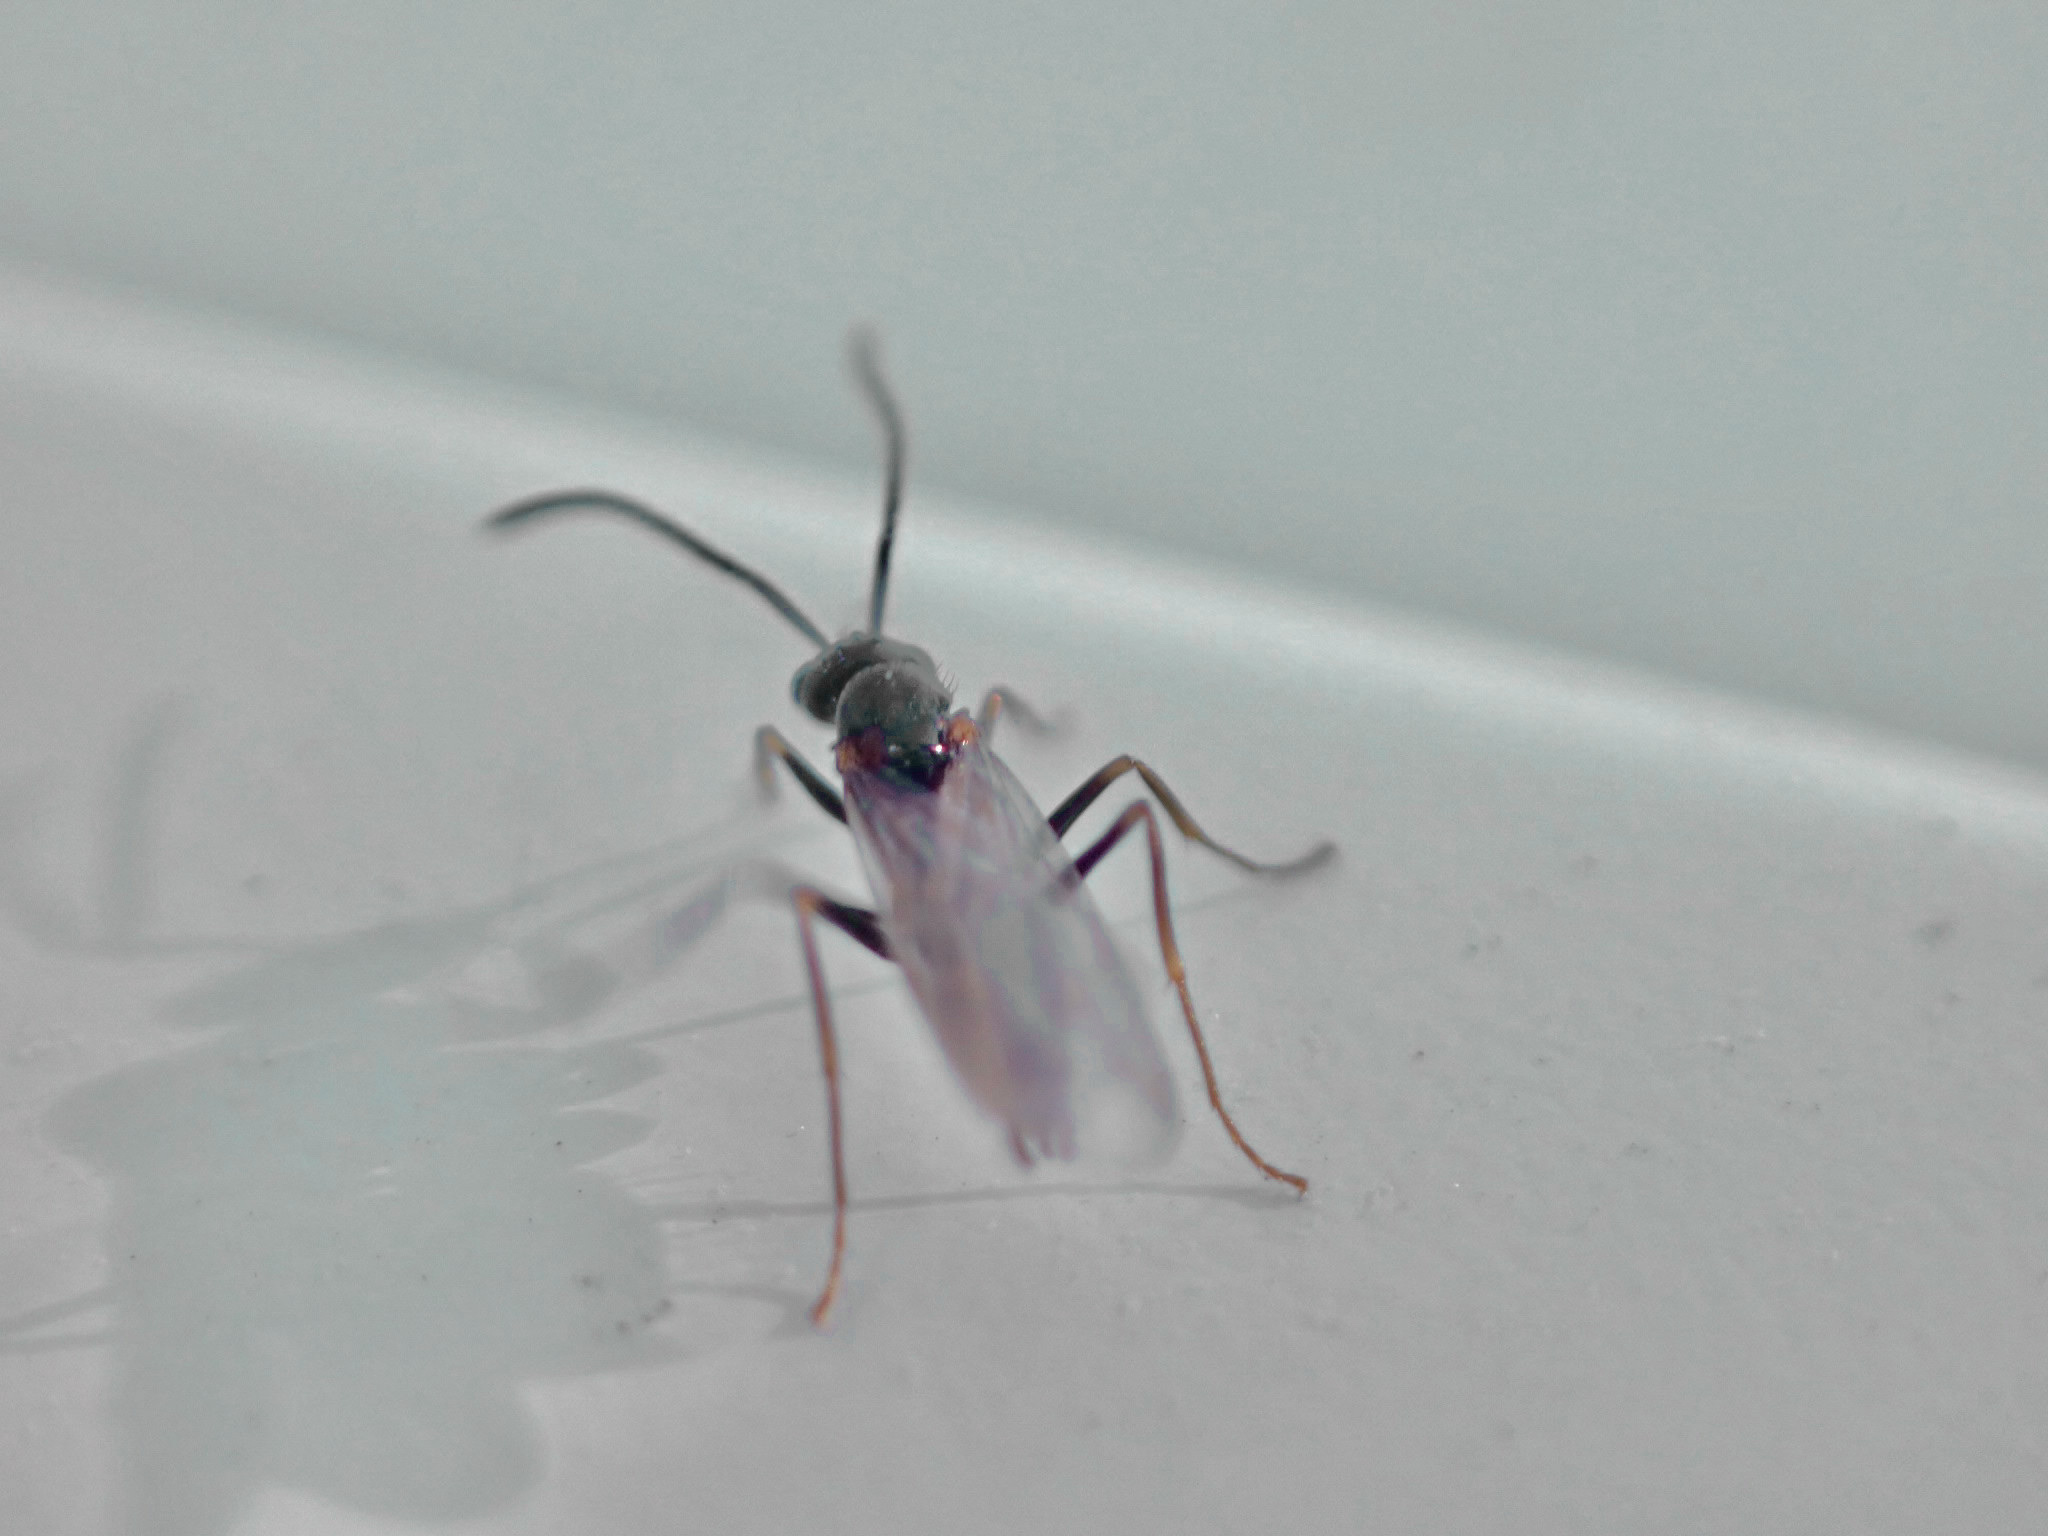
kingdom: Animalia
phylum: Arthropoda
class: Insecta
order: Hymenoptera
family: Formicidae
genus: Prenolepis
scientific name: Prenolepis imparis
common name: Small honey ant
